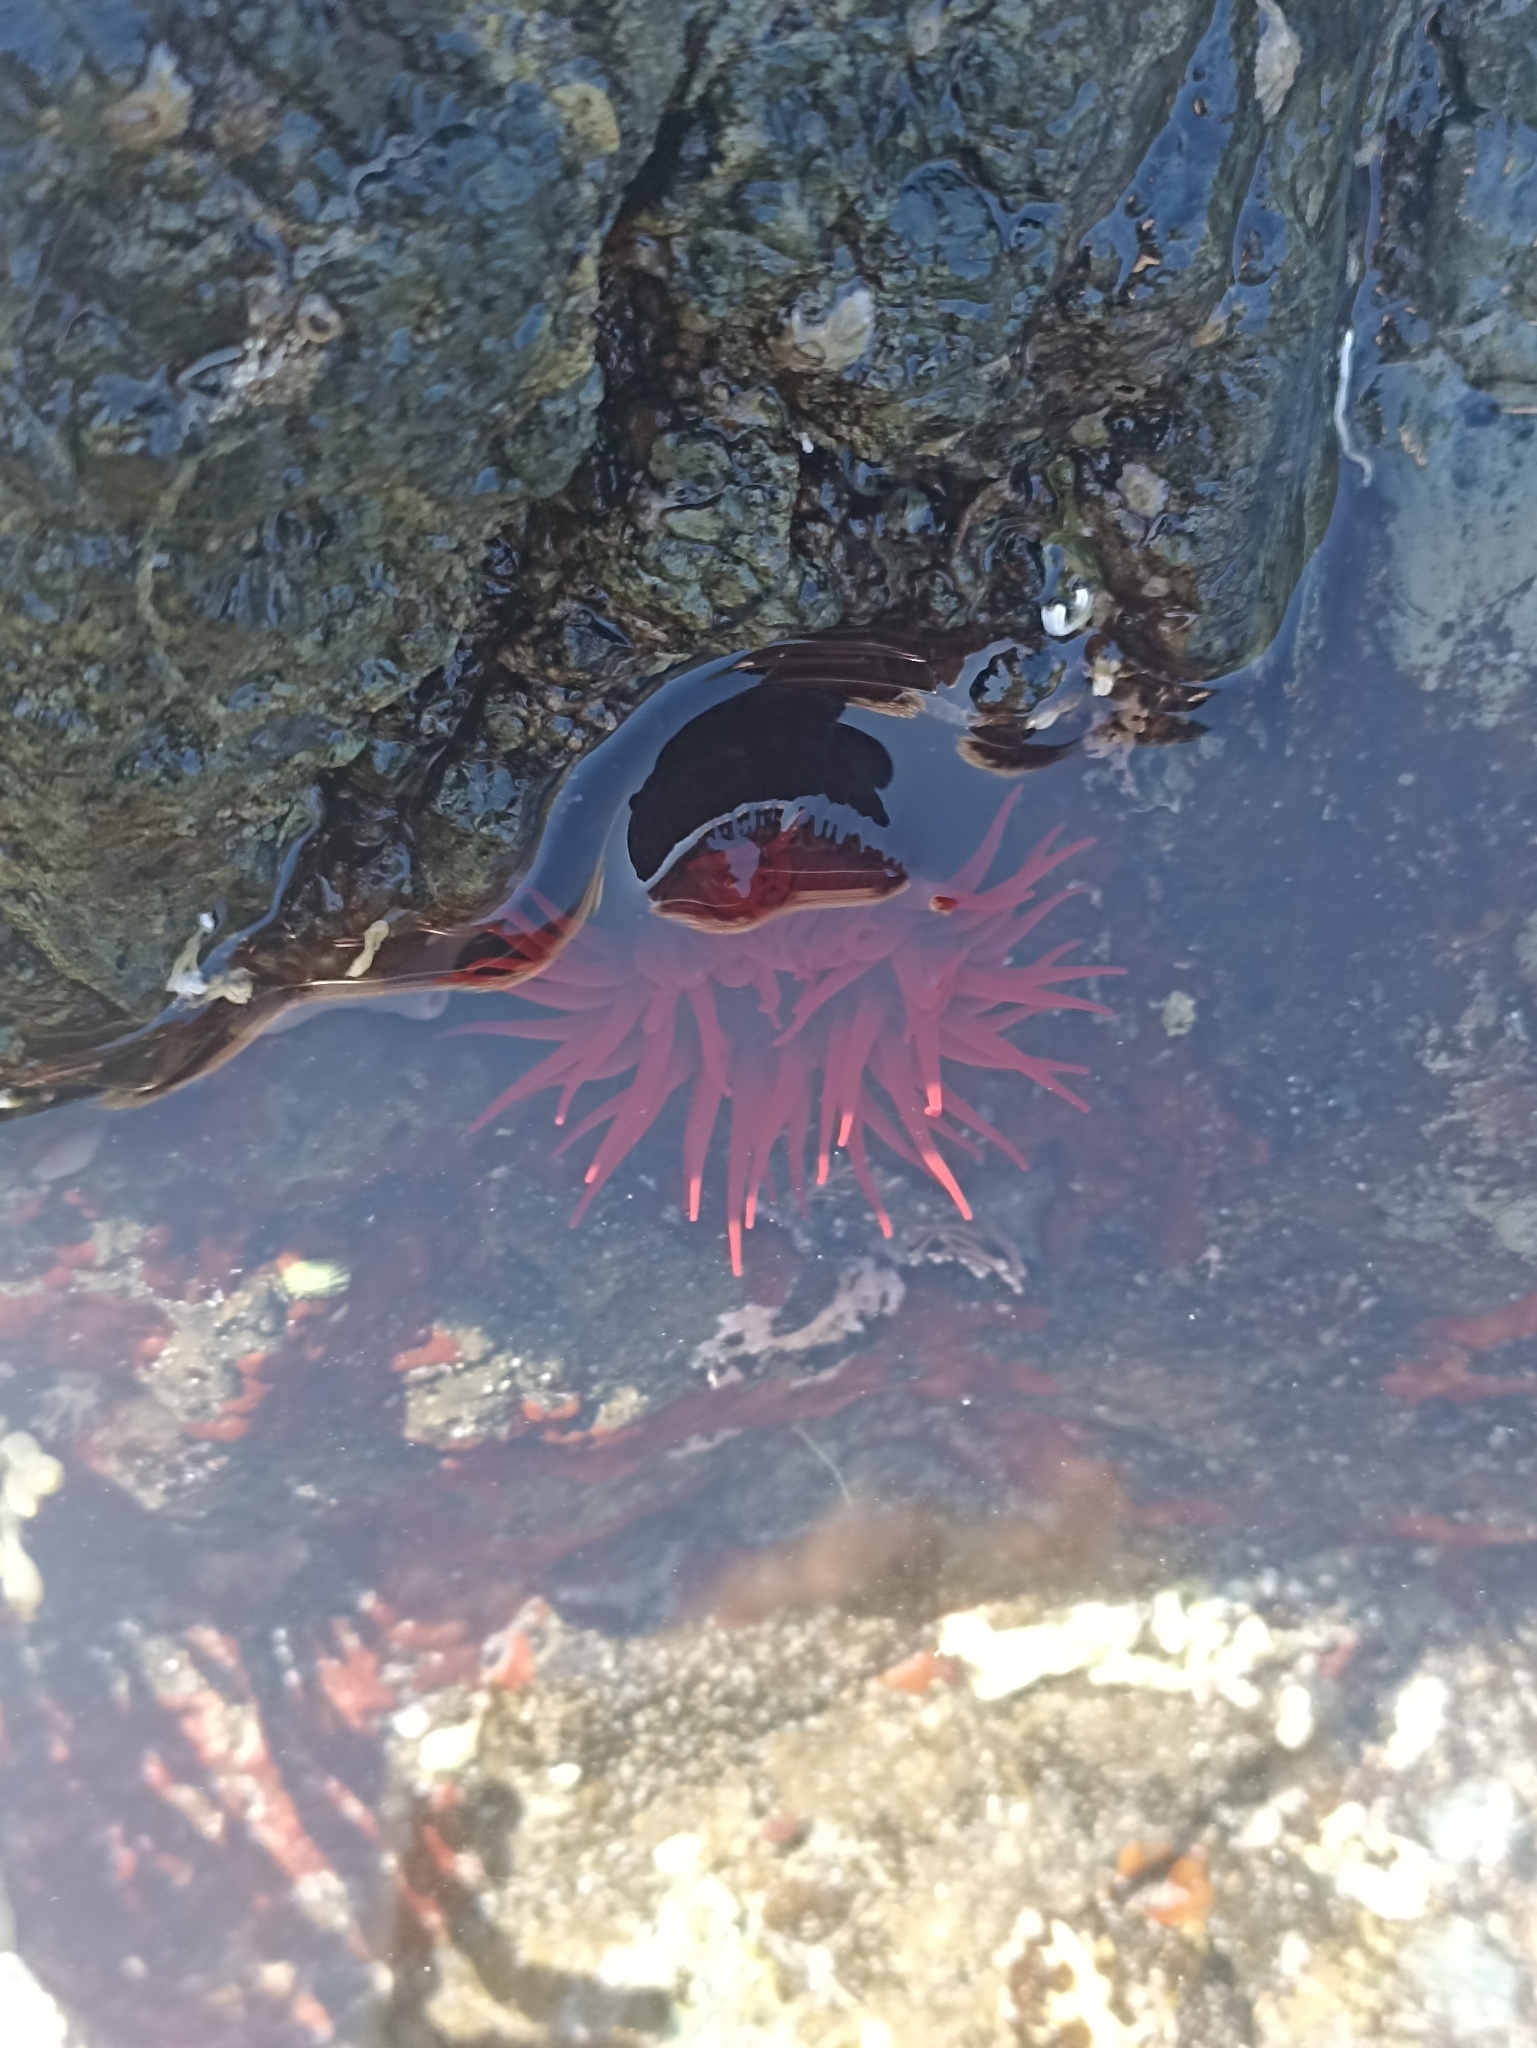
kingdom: Animalia
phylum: Cnidaria
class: Anthozoa
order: Actiniaria
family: Actiniidae
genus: Actinia
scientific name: Actinia tenebrosa
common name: Waratah anemone
